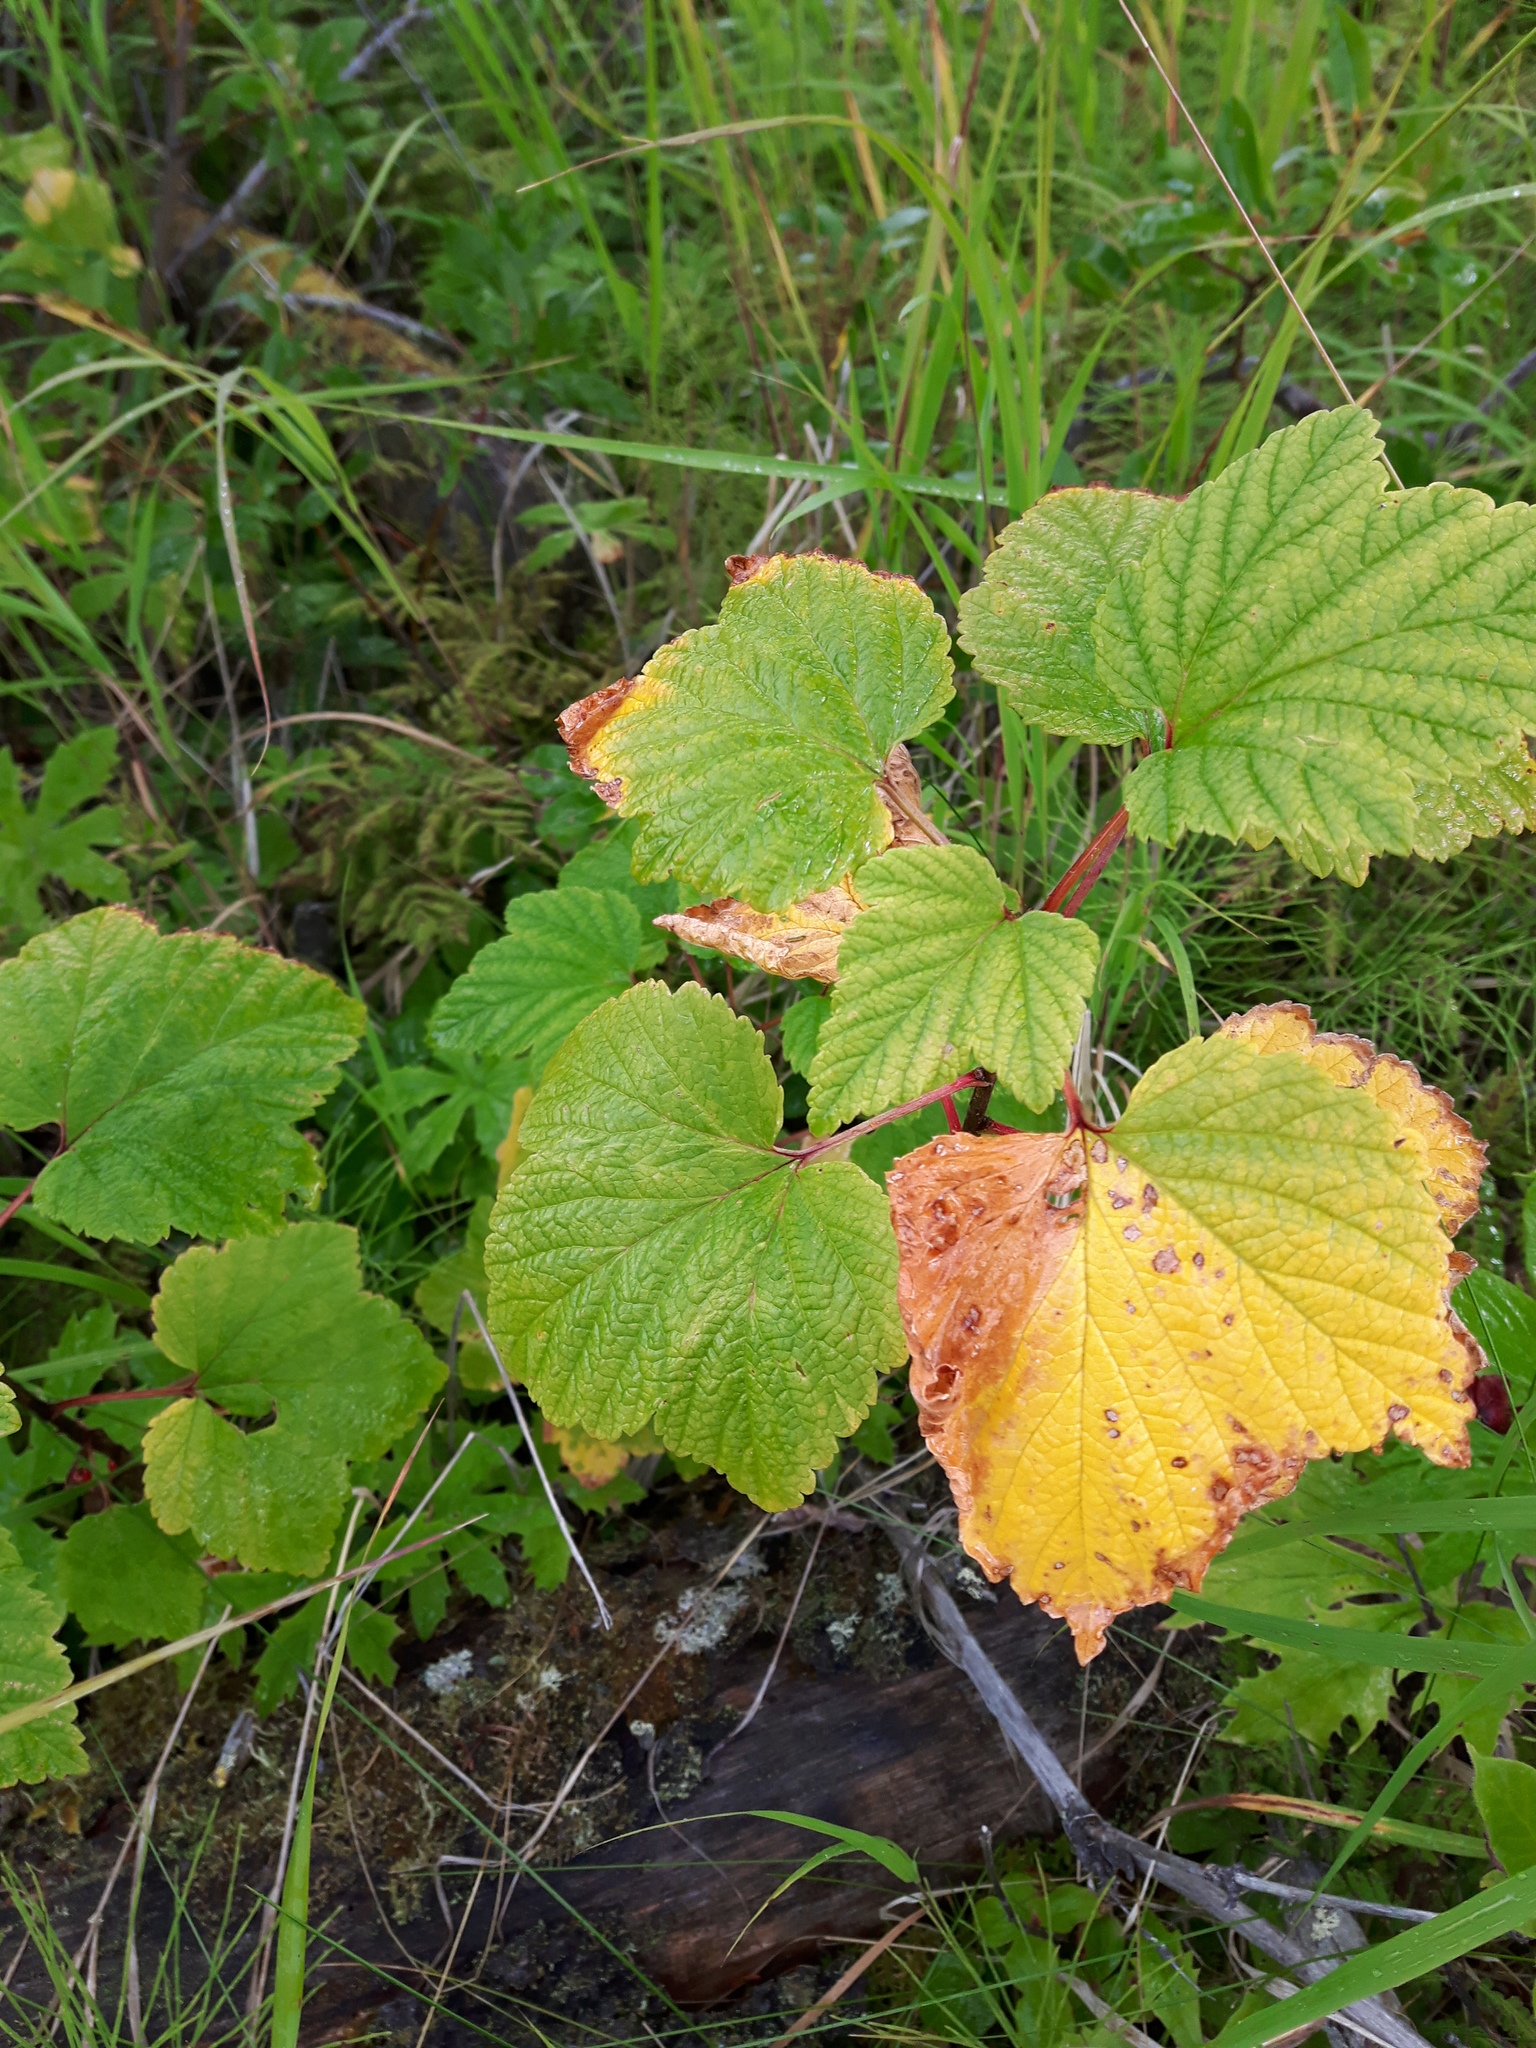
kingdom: Plantae
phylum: Tracheophyta
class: Magnoliopsida
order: Saxifragales
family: Grossulariaceae
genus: Ribes
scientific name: Ribes triste
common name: Swamp red currant
